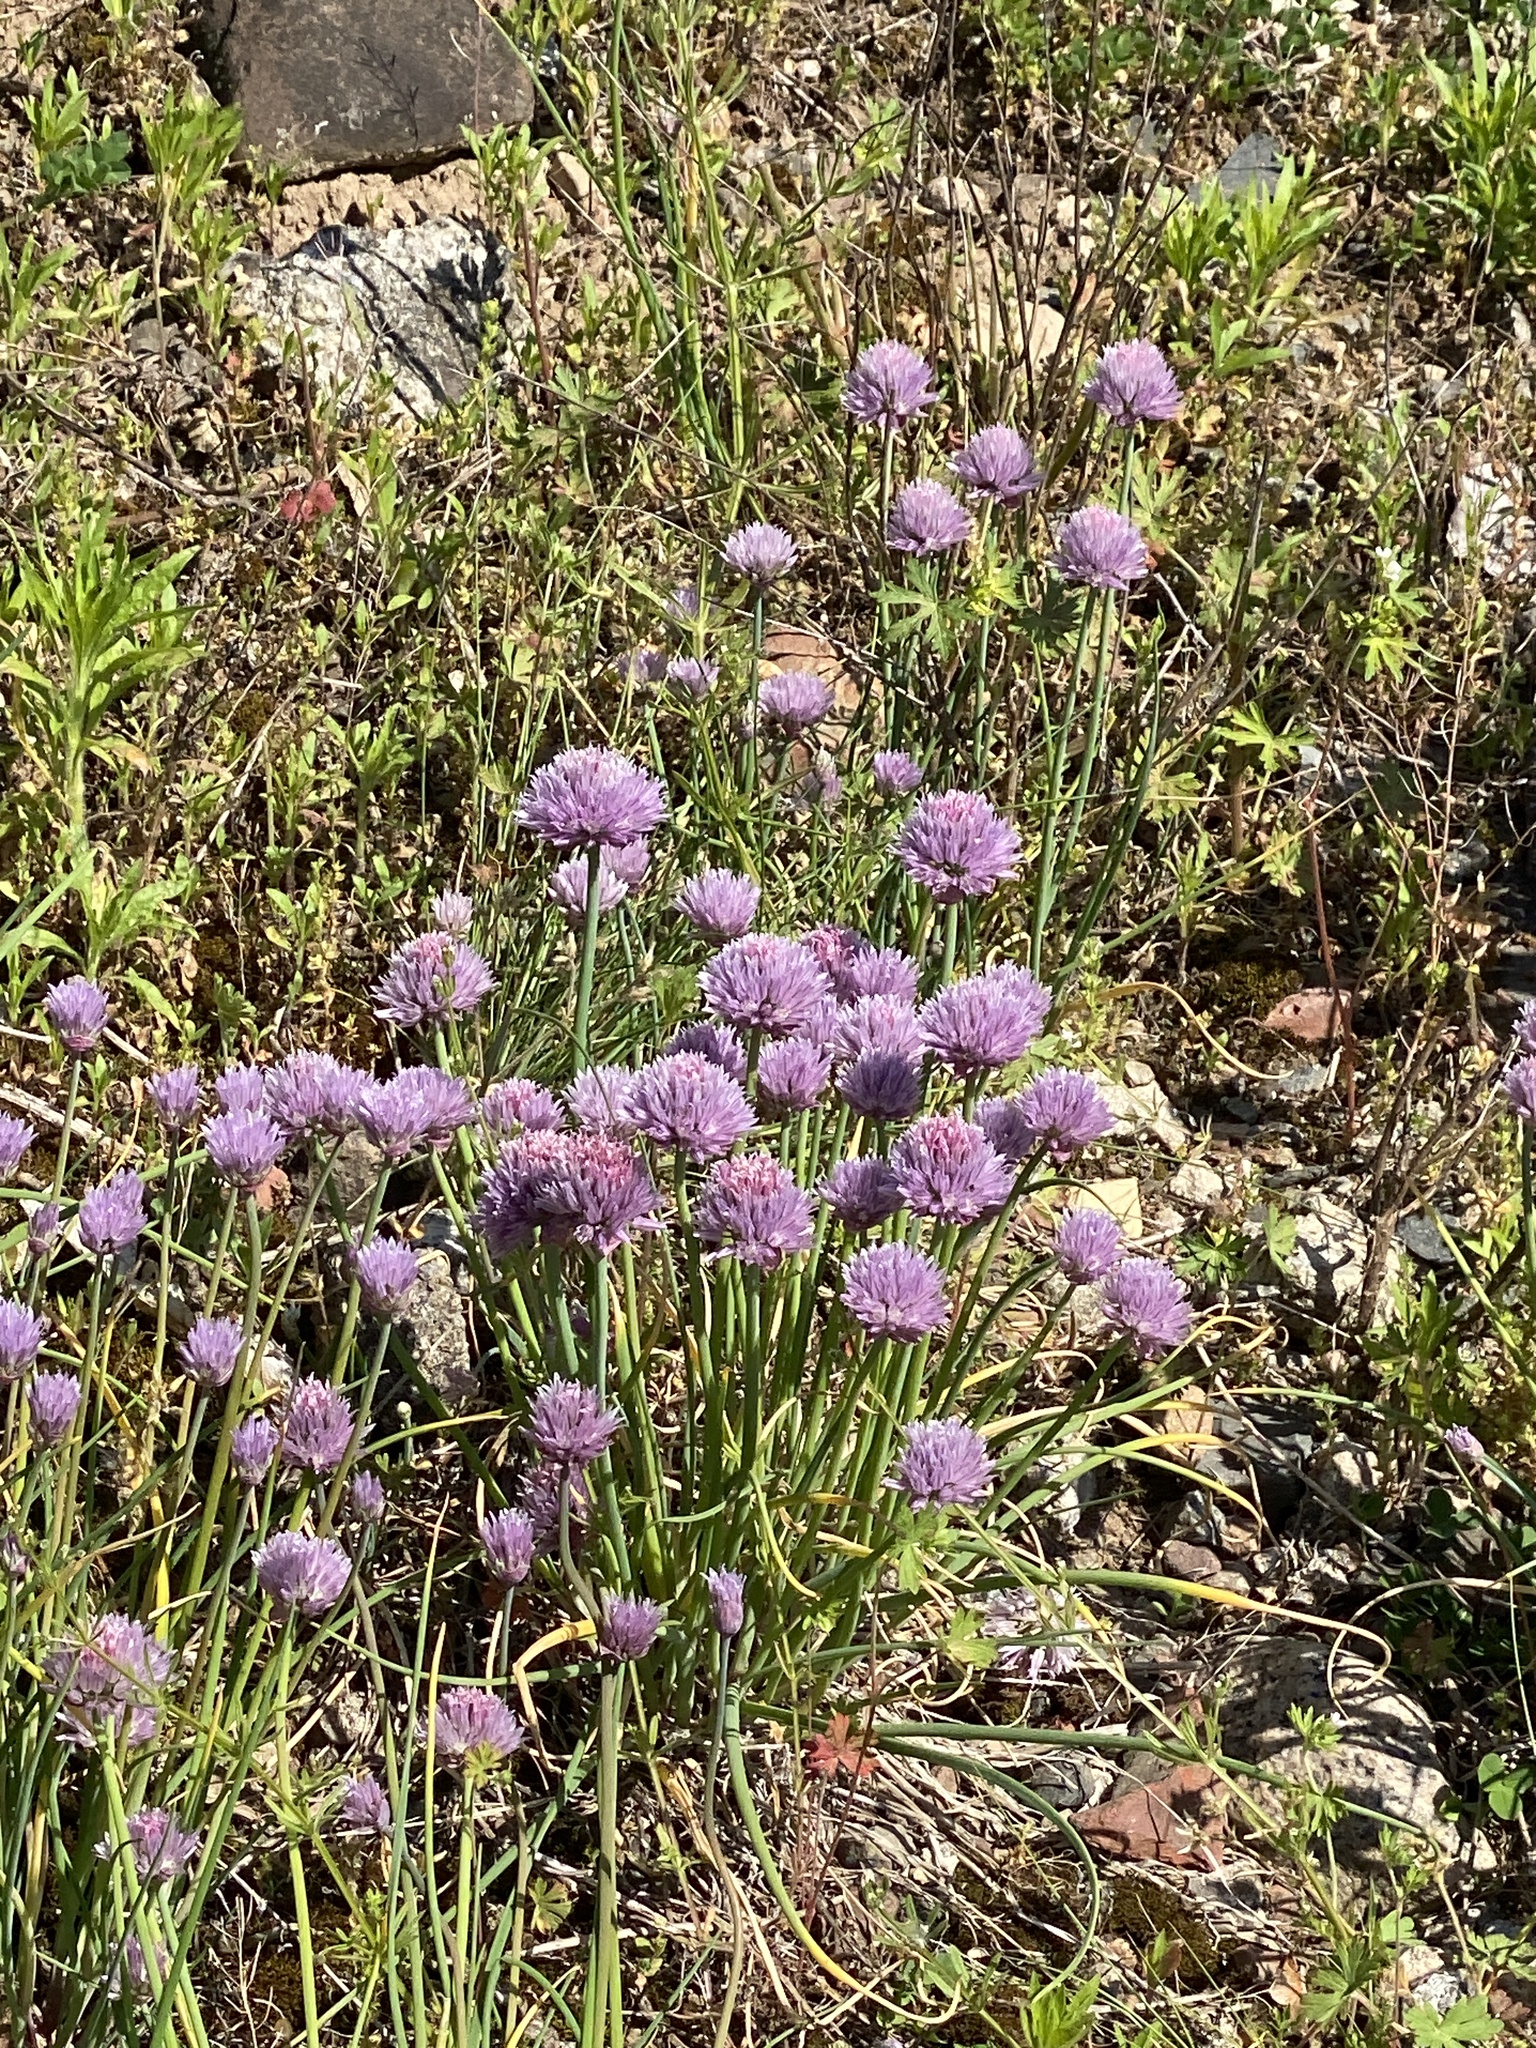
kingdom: Plantae
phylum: Tracheophyta
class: Liliopsida
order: Asparagales
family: Amaryllidaceae
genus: Allium
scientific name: Allium schoenoprasum
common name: Chives
